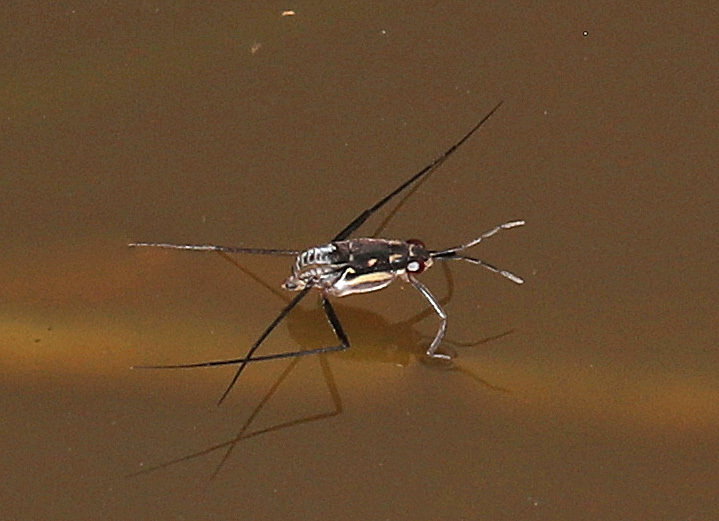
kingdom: Animalia
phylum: Arthropoda
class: Insecta
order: Hemiptera
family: Gerridae
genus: Trepobates
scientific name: Trepobates subnitidus
